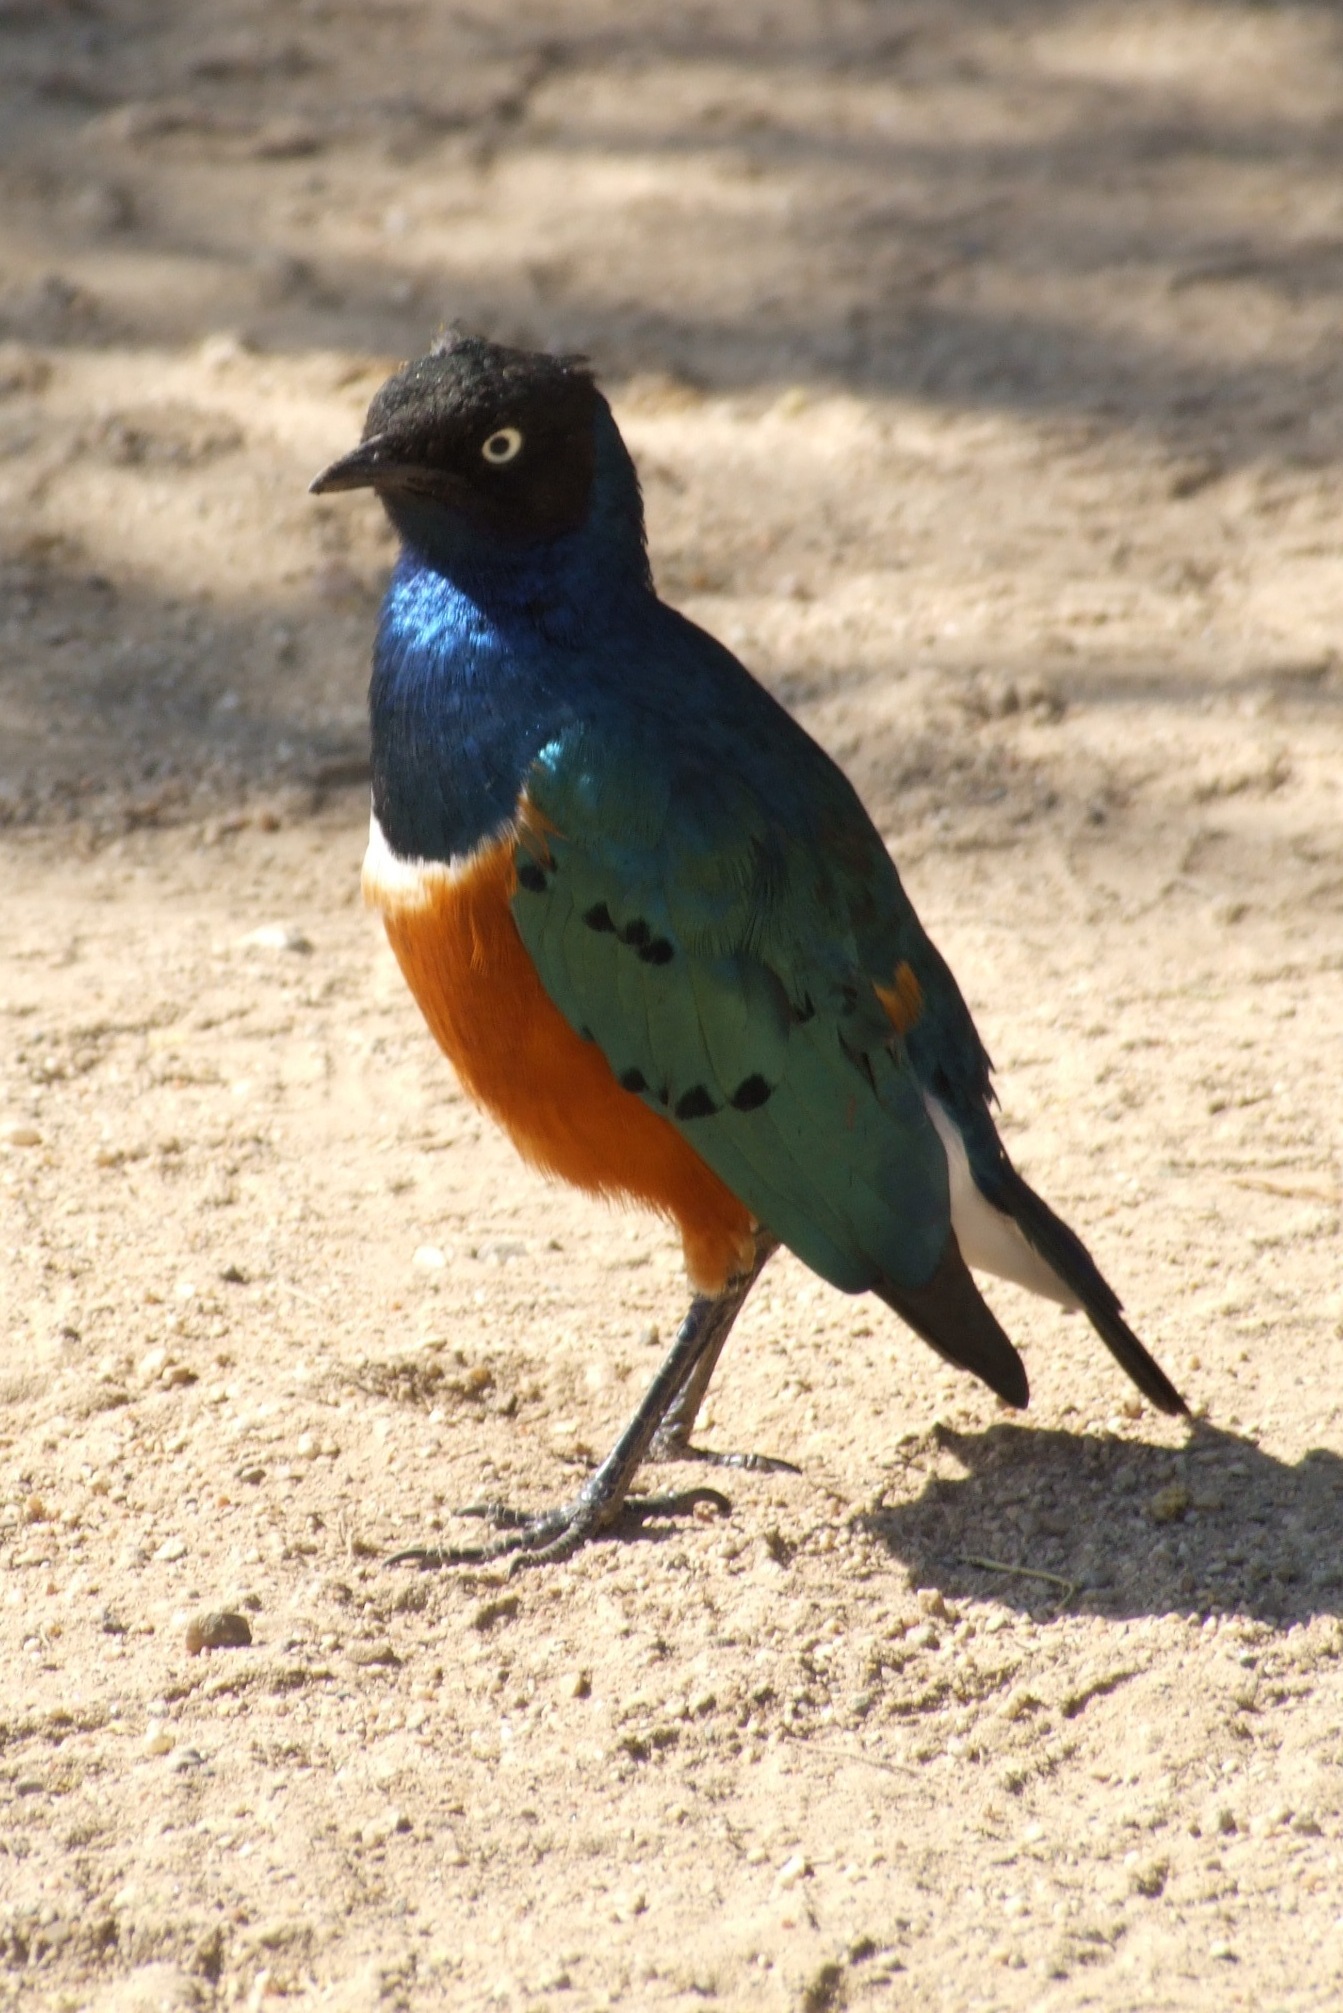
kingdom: Animalia
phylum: Chordata
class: Aves
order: Passeriformes
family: Sturnidae
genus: Lamprotornis
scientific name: Lamprotornis superbus
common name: Superb starling
